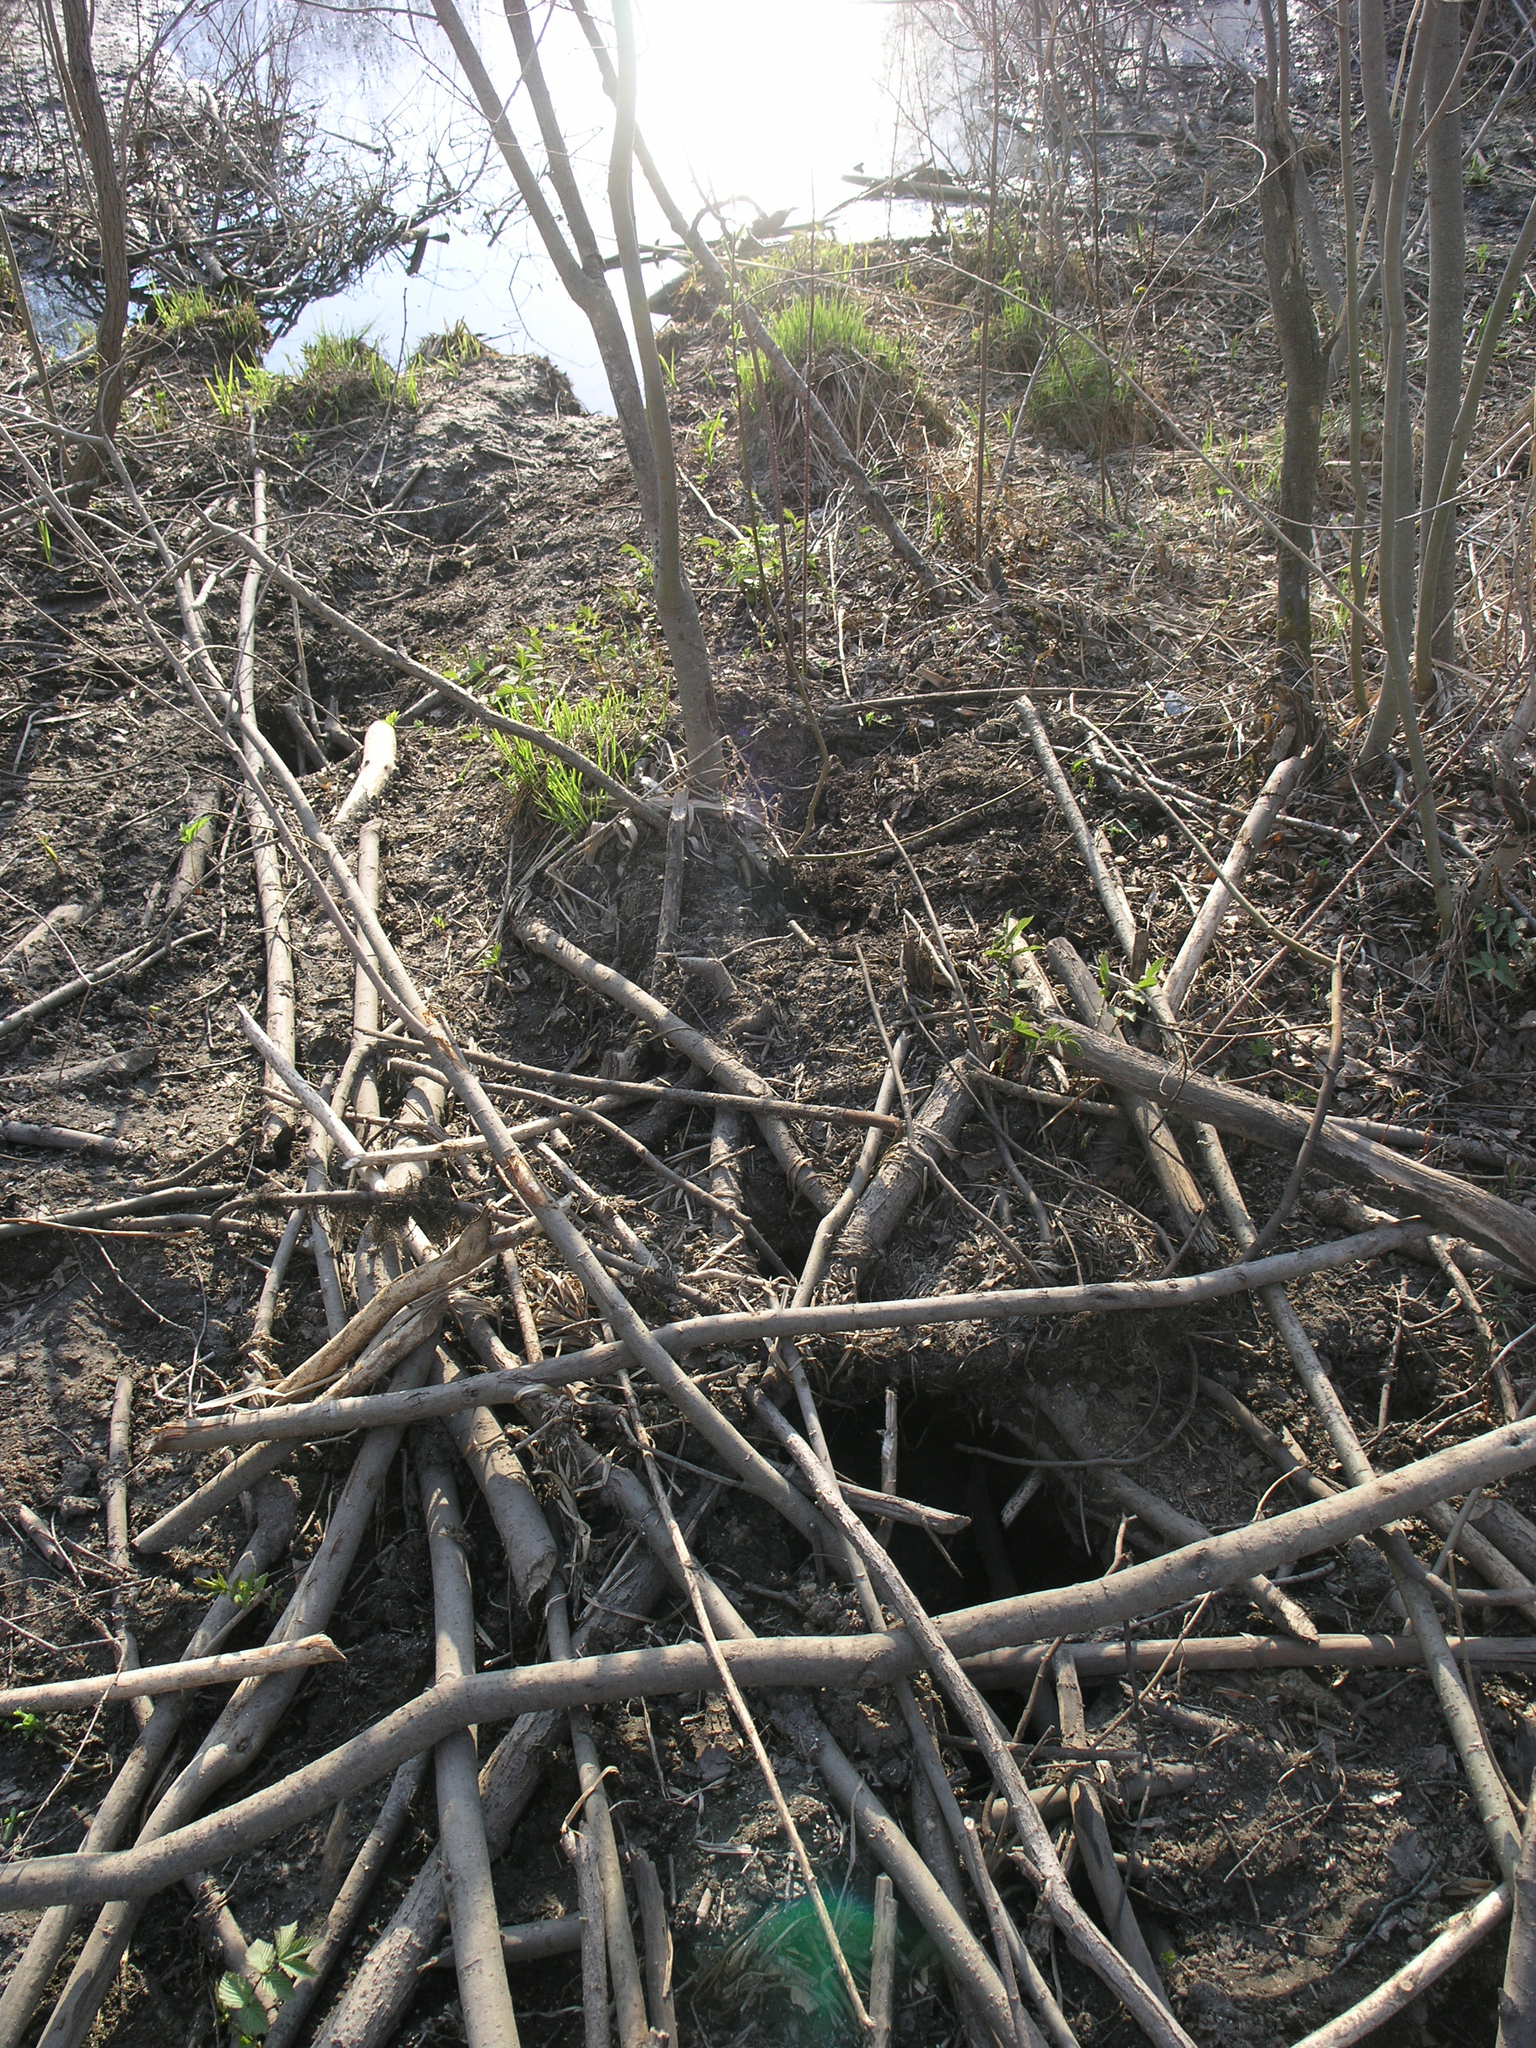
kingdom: Animalia
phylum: Chordata
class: Mammalia
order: Rodentia
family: Castoridae
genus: Castor
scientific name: Castor fiber
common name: Eurasian beaver
